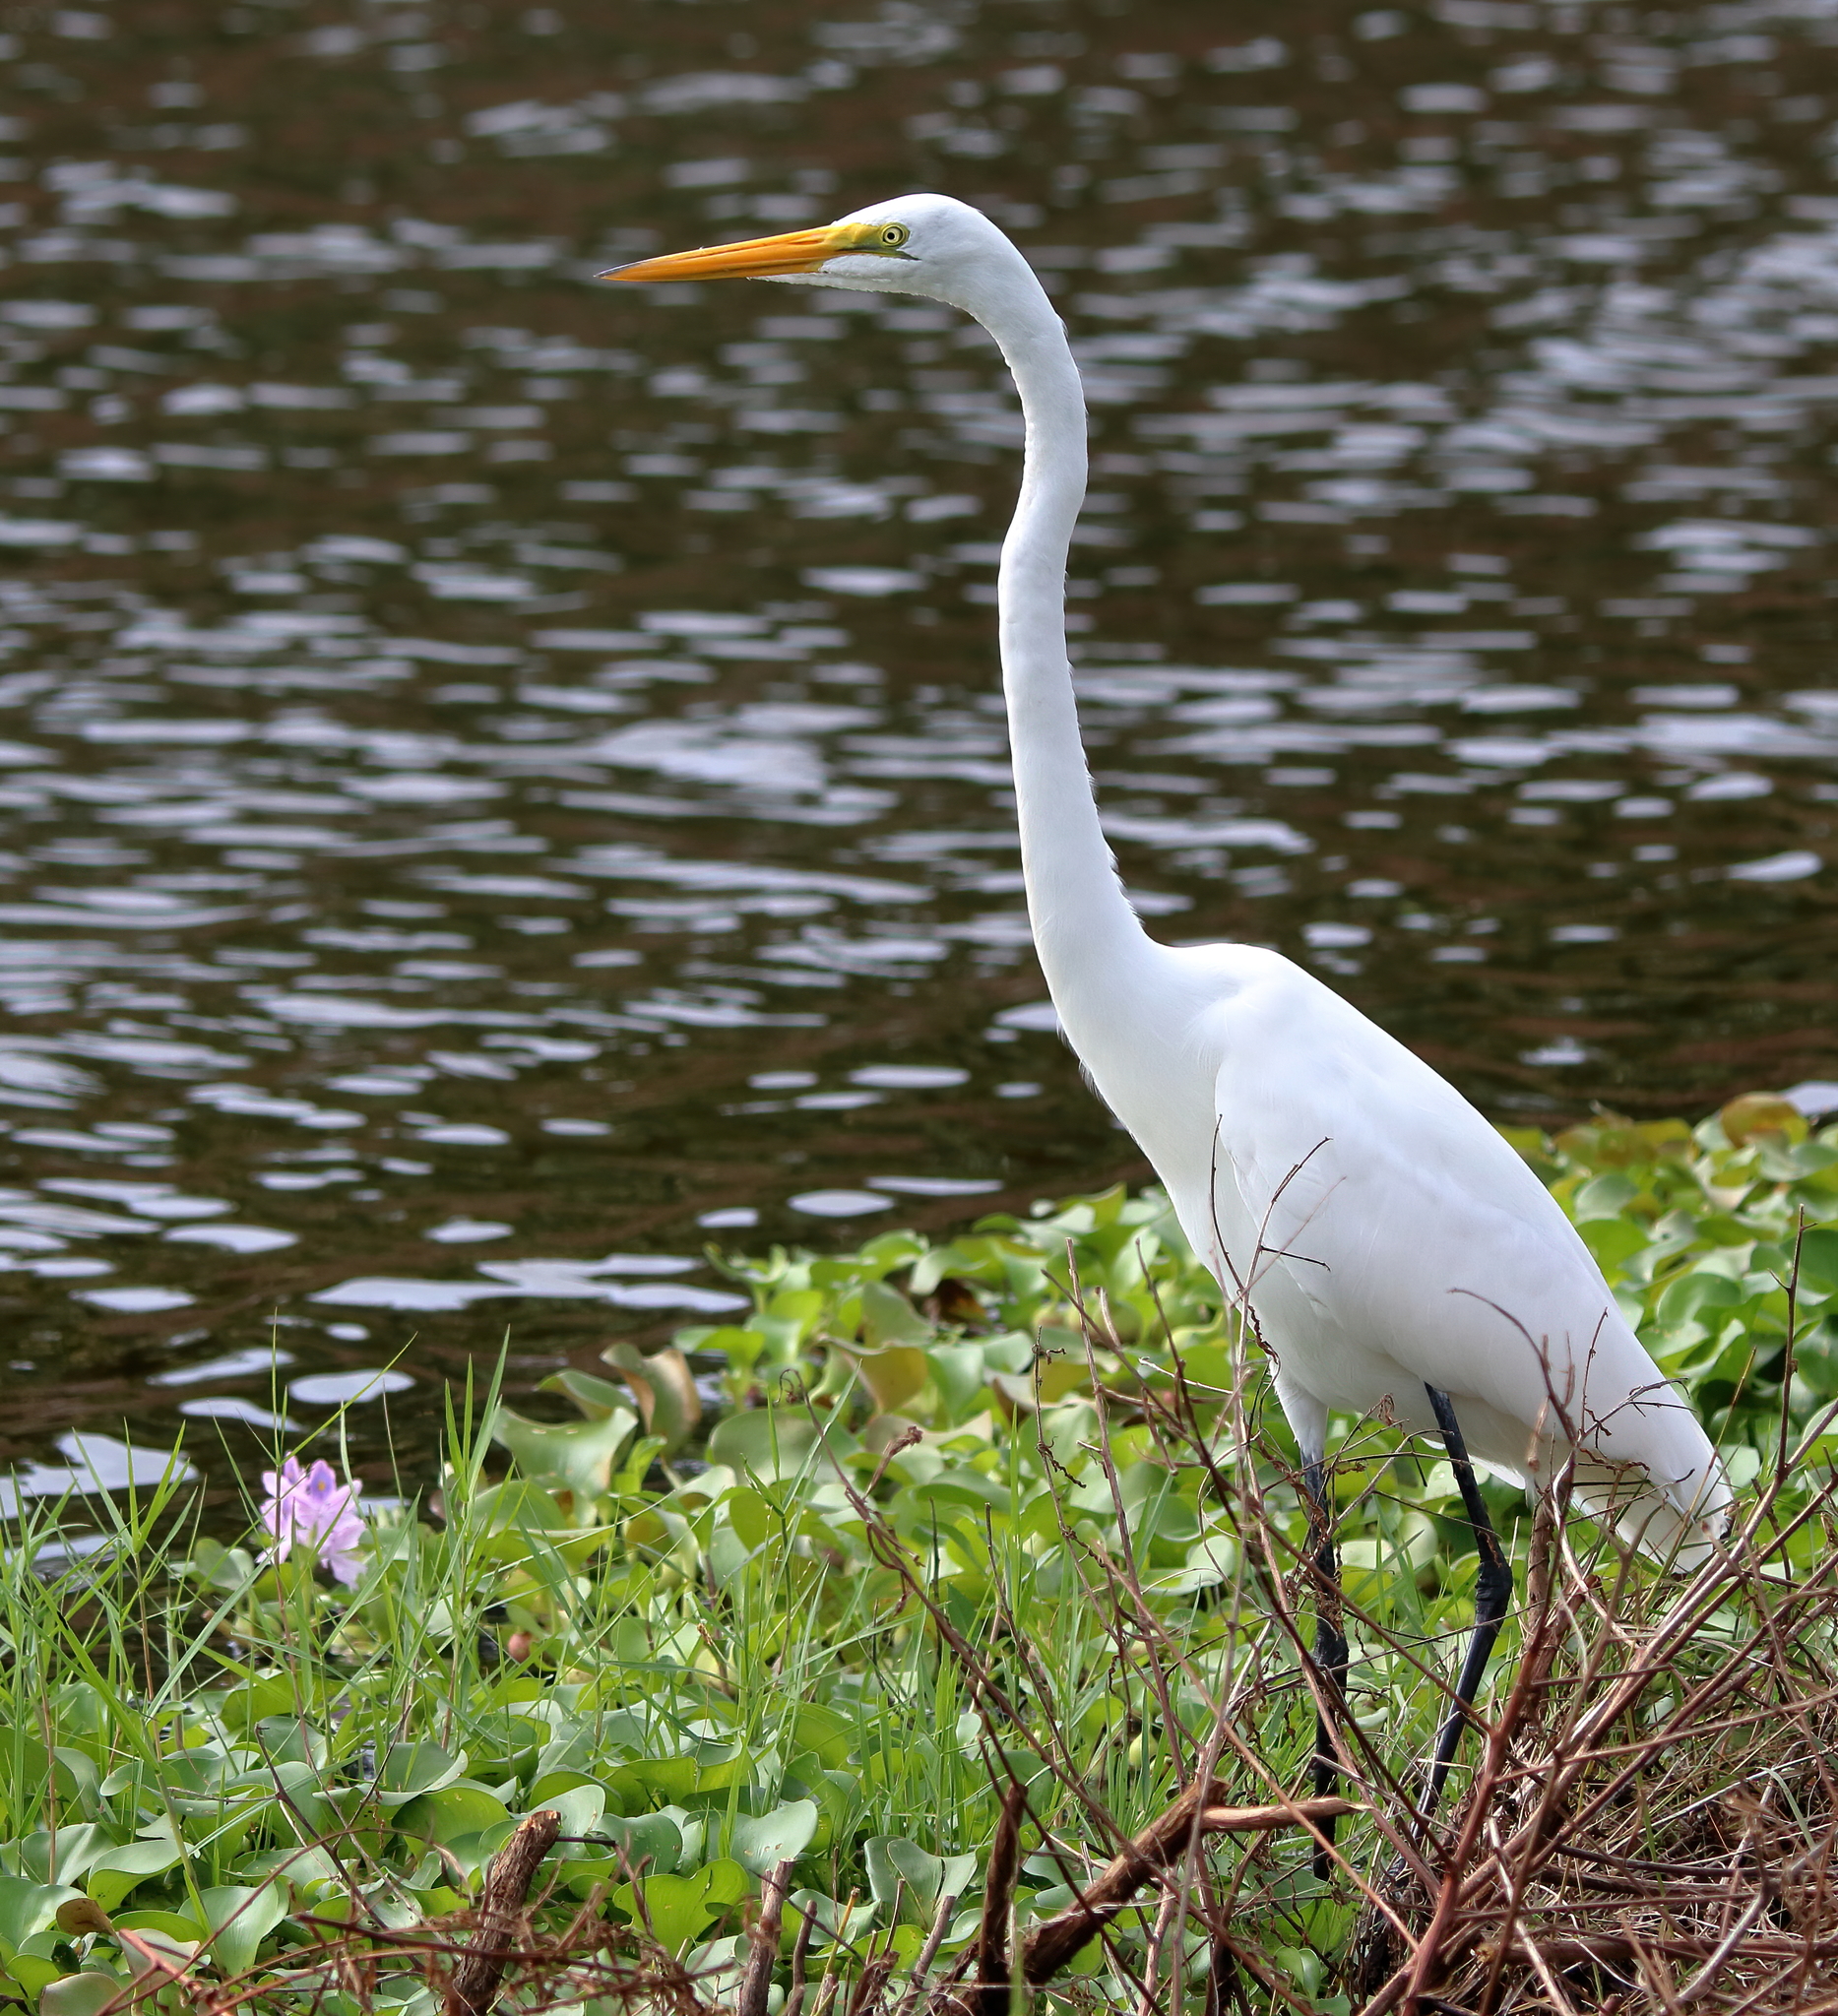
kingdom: Animalia
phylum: Chordata
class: Aves
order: Pelecaniformes
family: Ardeidae
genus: Ardea
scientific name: Ardea alba
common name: Great egret
